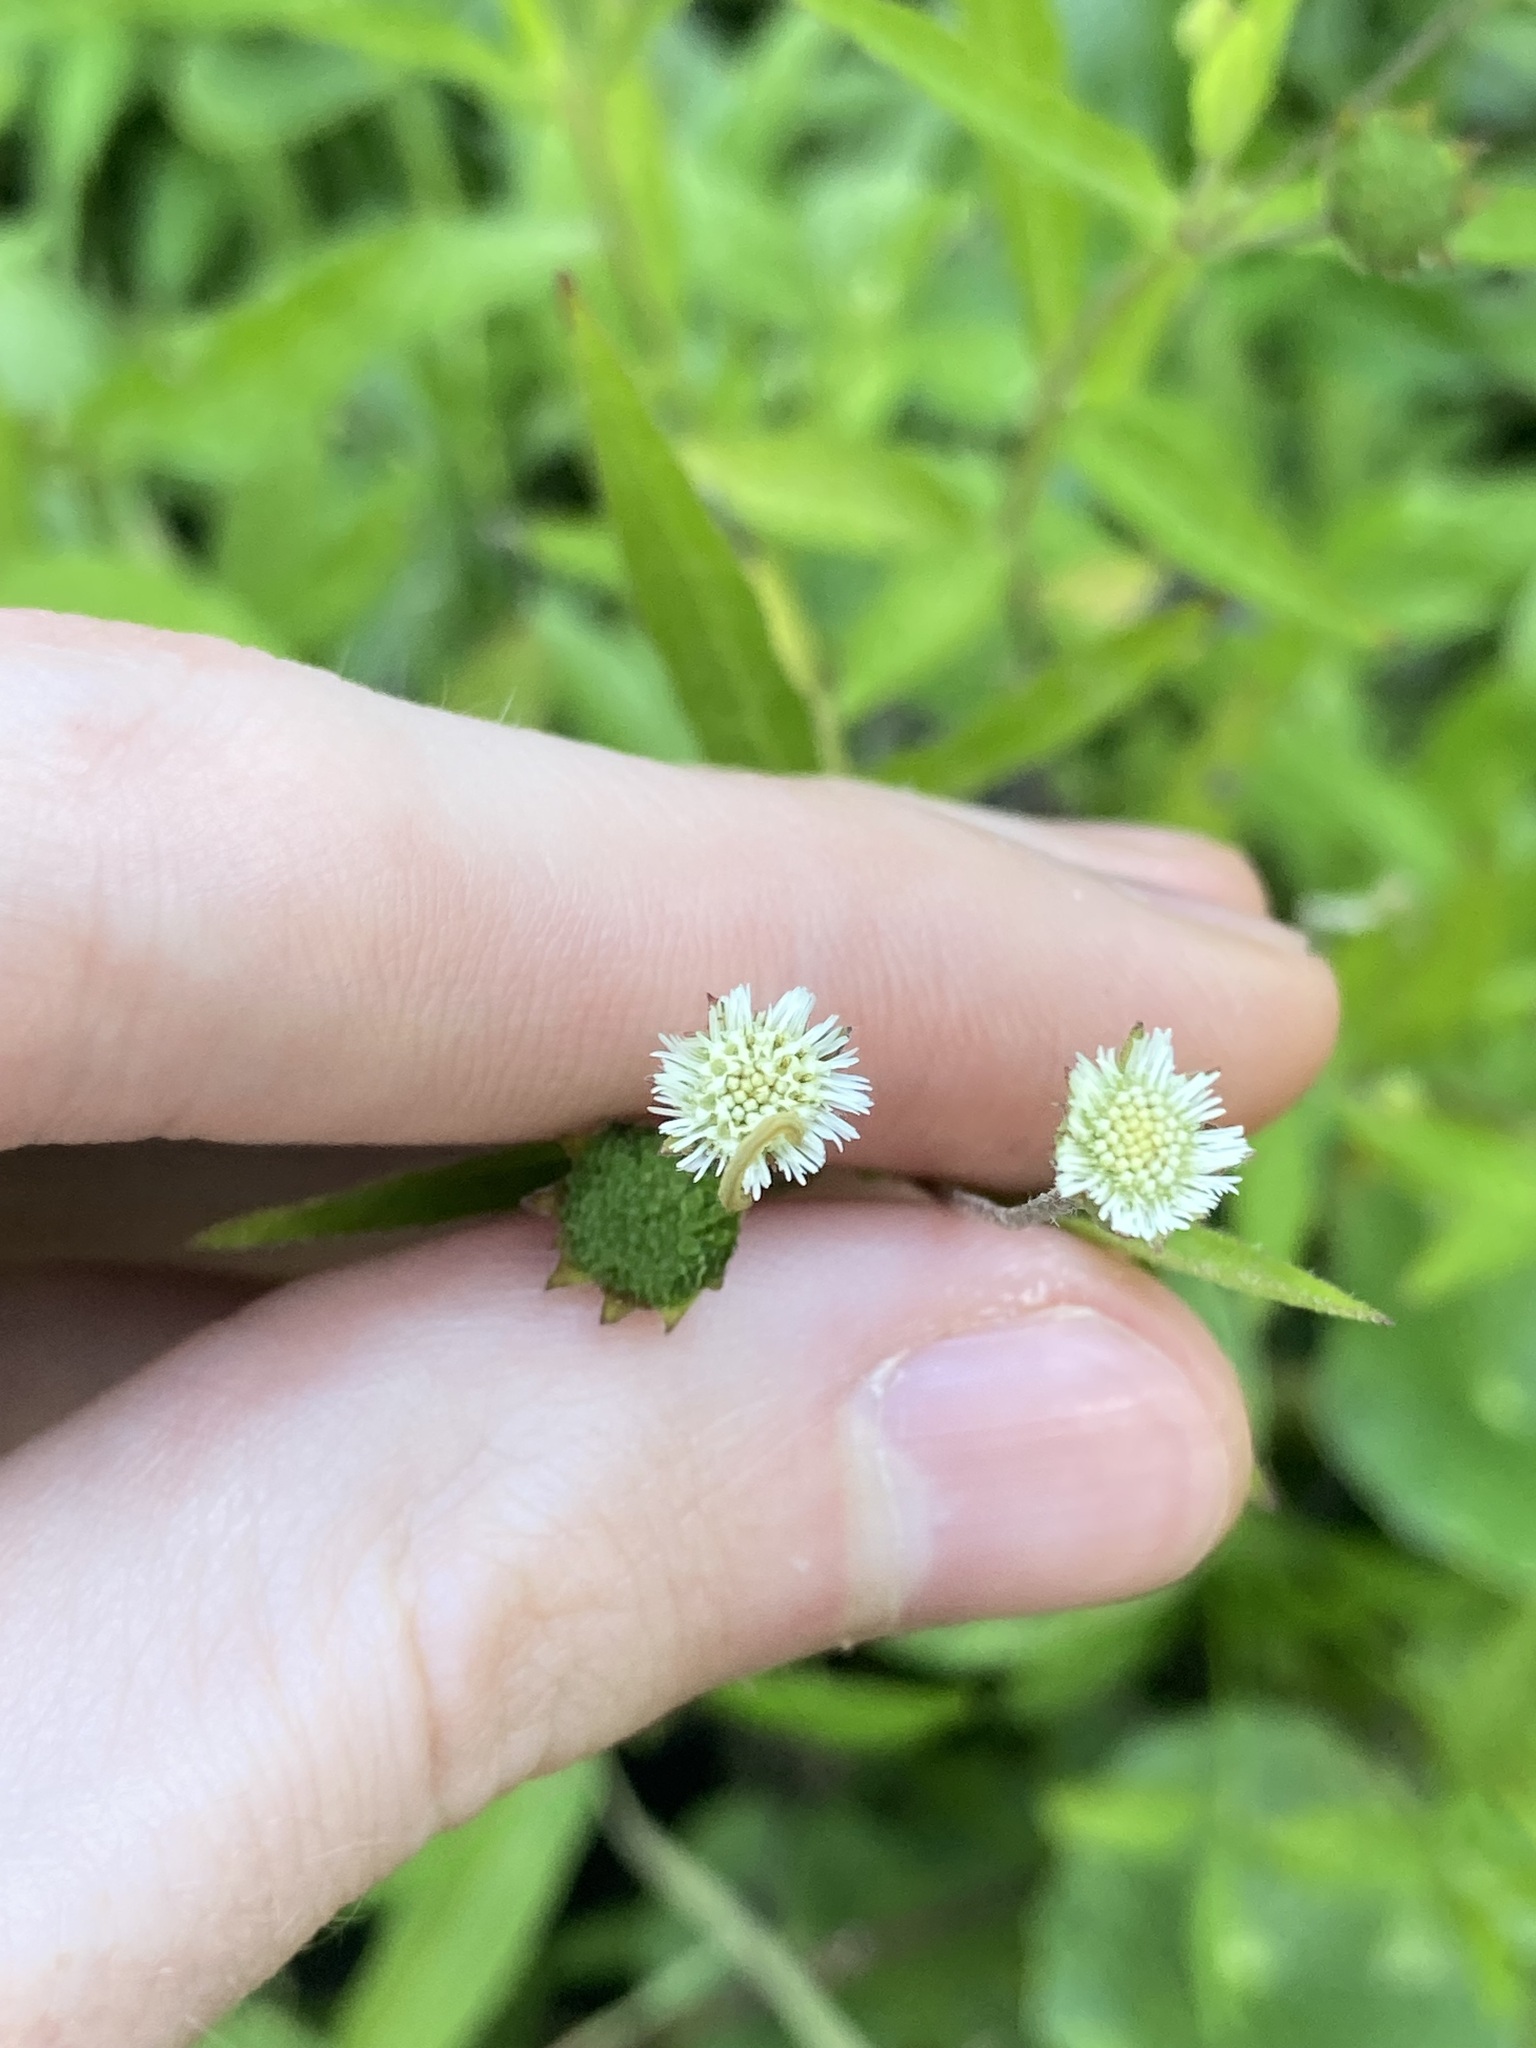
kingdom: Plantae
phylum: Tracheophyta
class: Magnoliopsida
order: Asterales
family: Asteraceae
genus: Eclipta
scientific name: Eclipta prostrata
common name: False daisy
